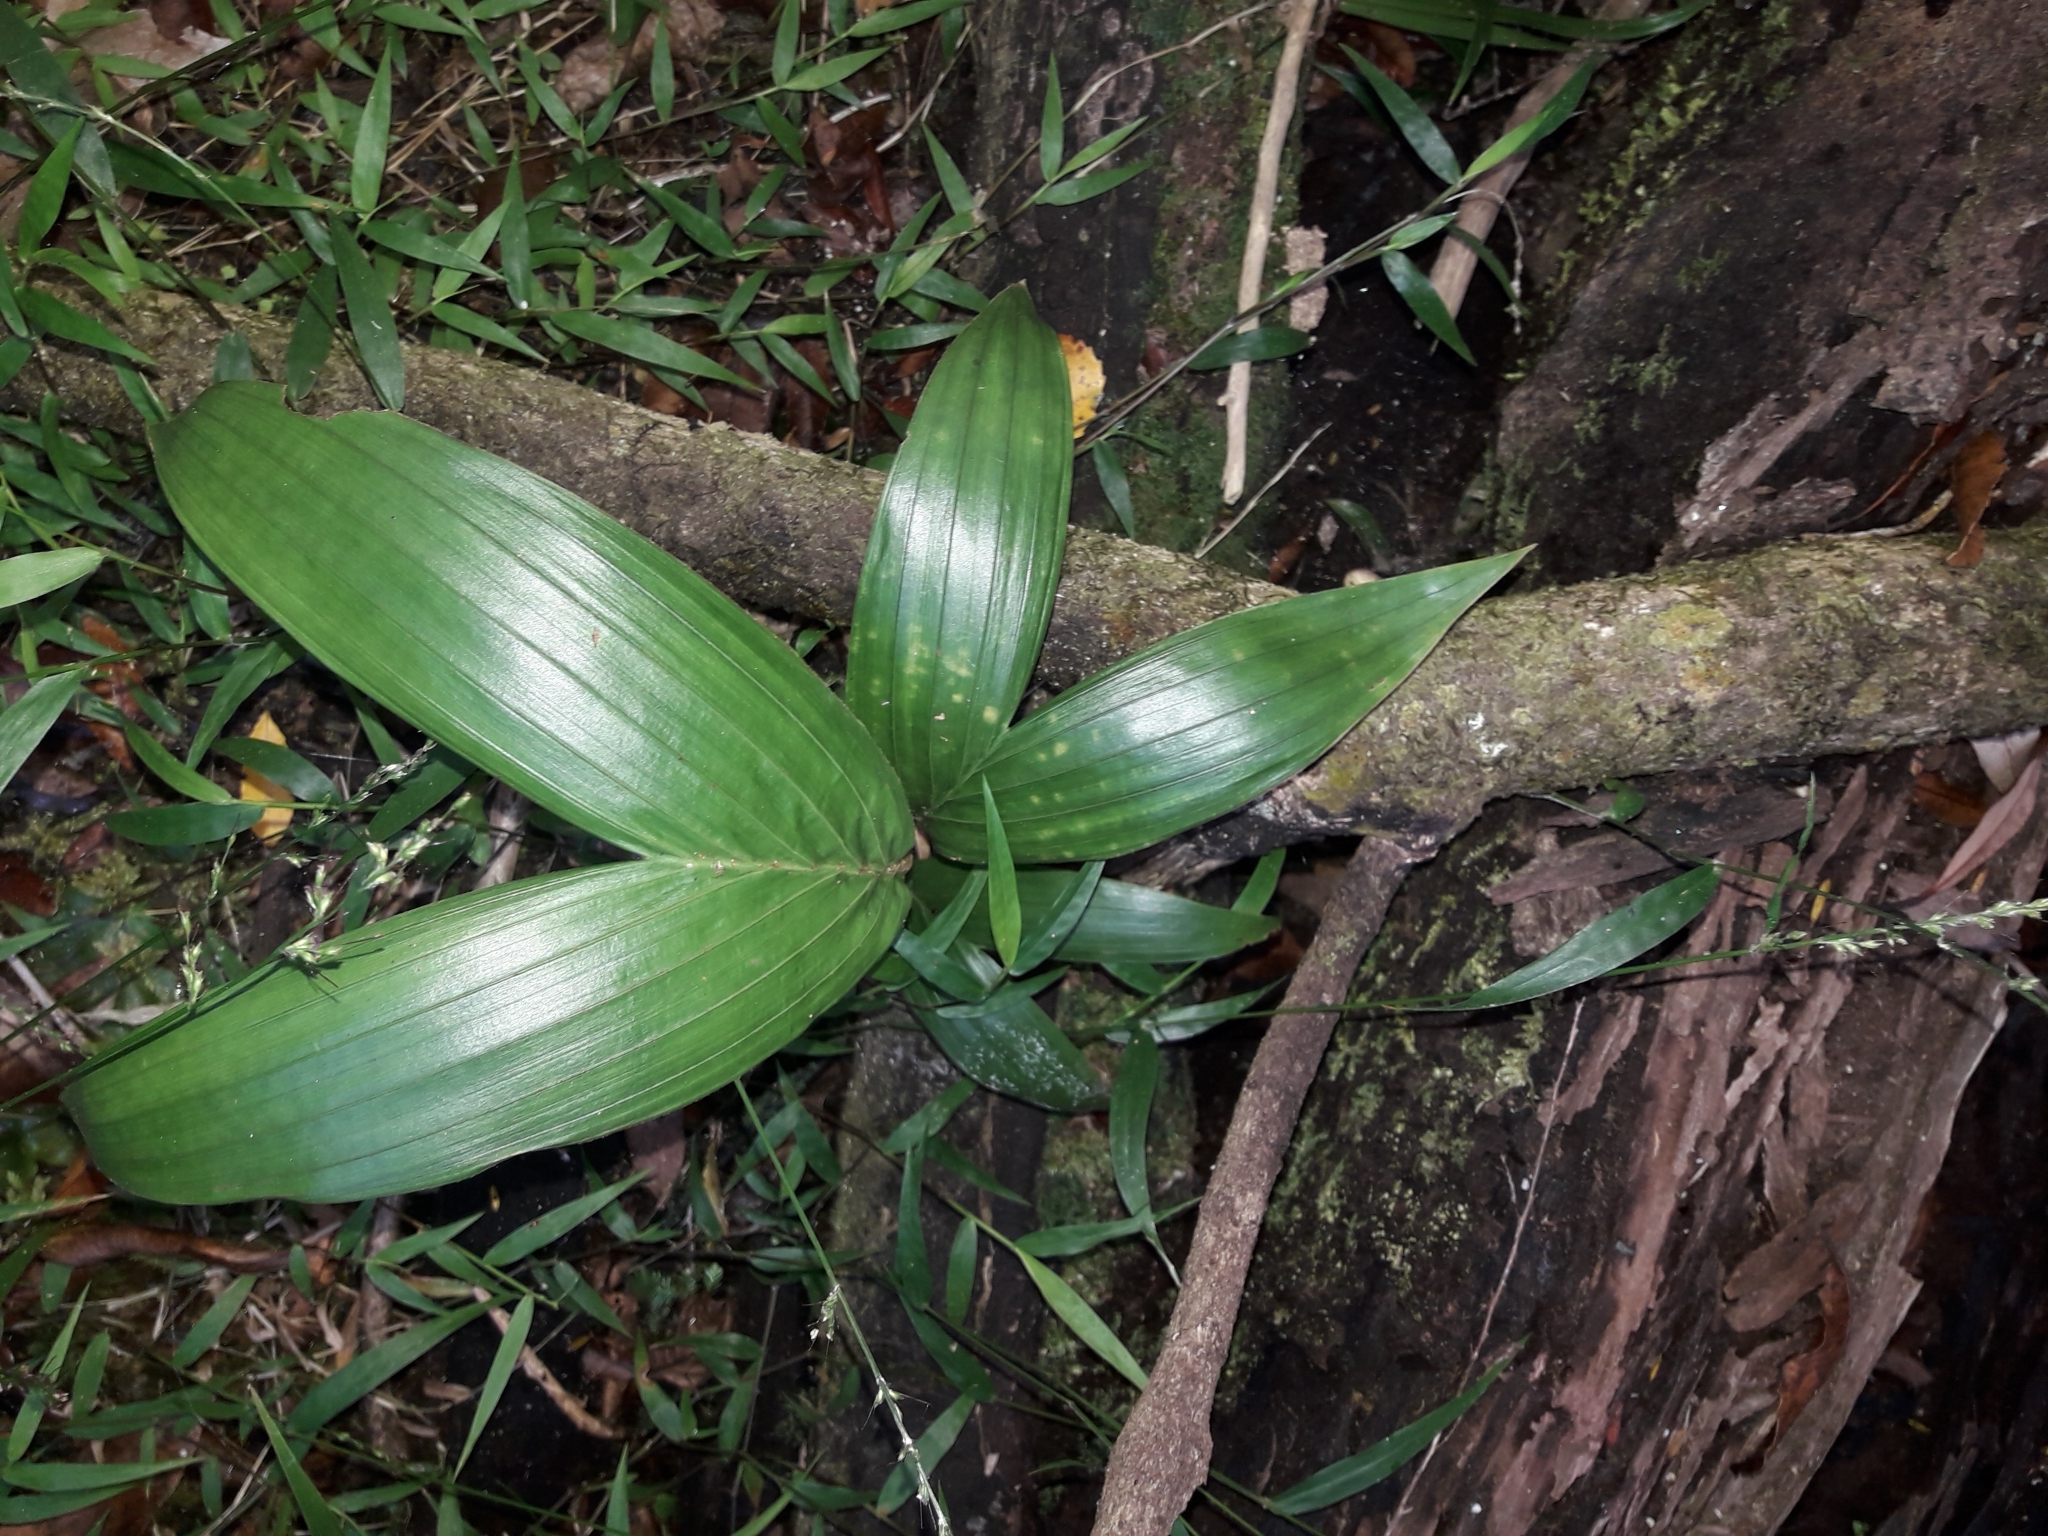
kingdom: Plantae
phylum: Tracheophyta
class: Liliopsida
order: Arecales
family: Arecaceae
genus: Archontophoenix
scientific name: Archontophoenix cunninghamiana
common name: Piccabeen bangalow palm
